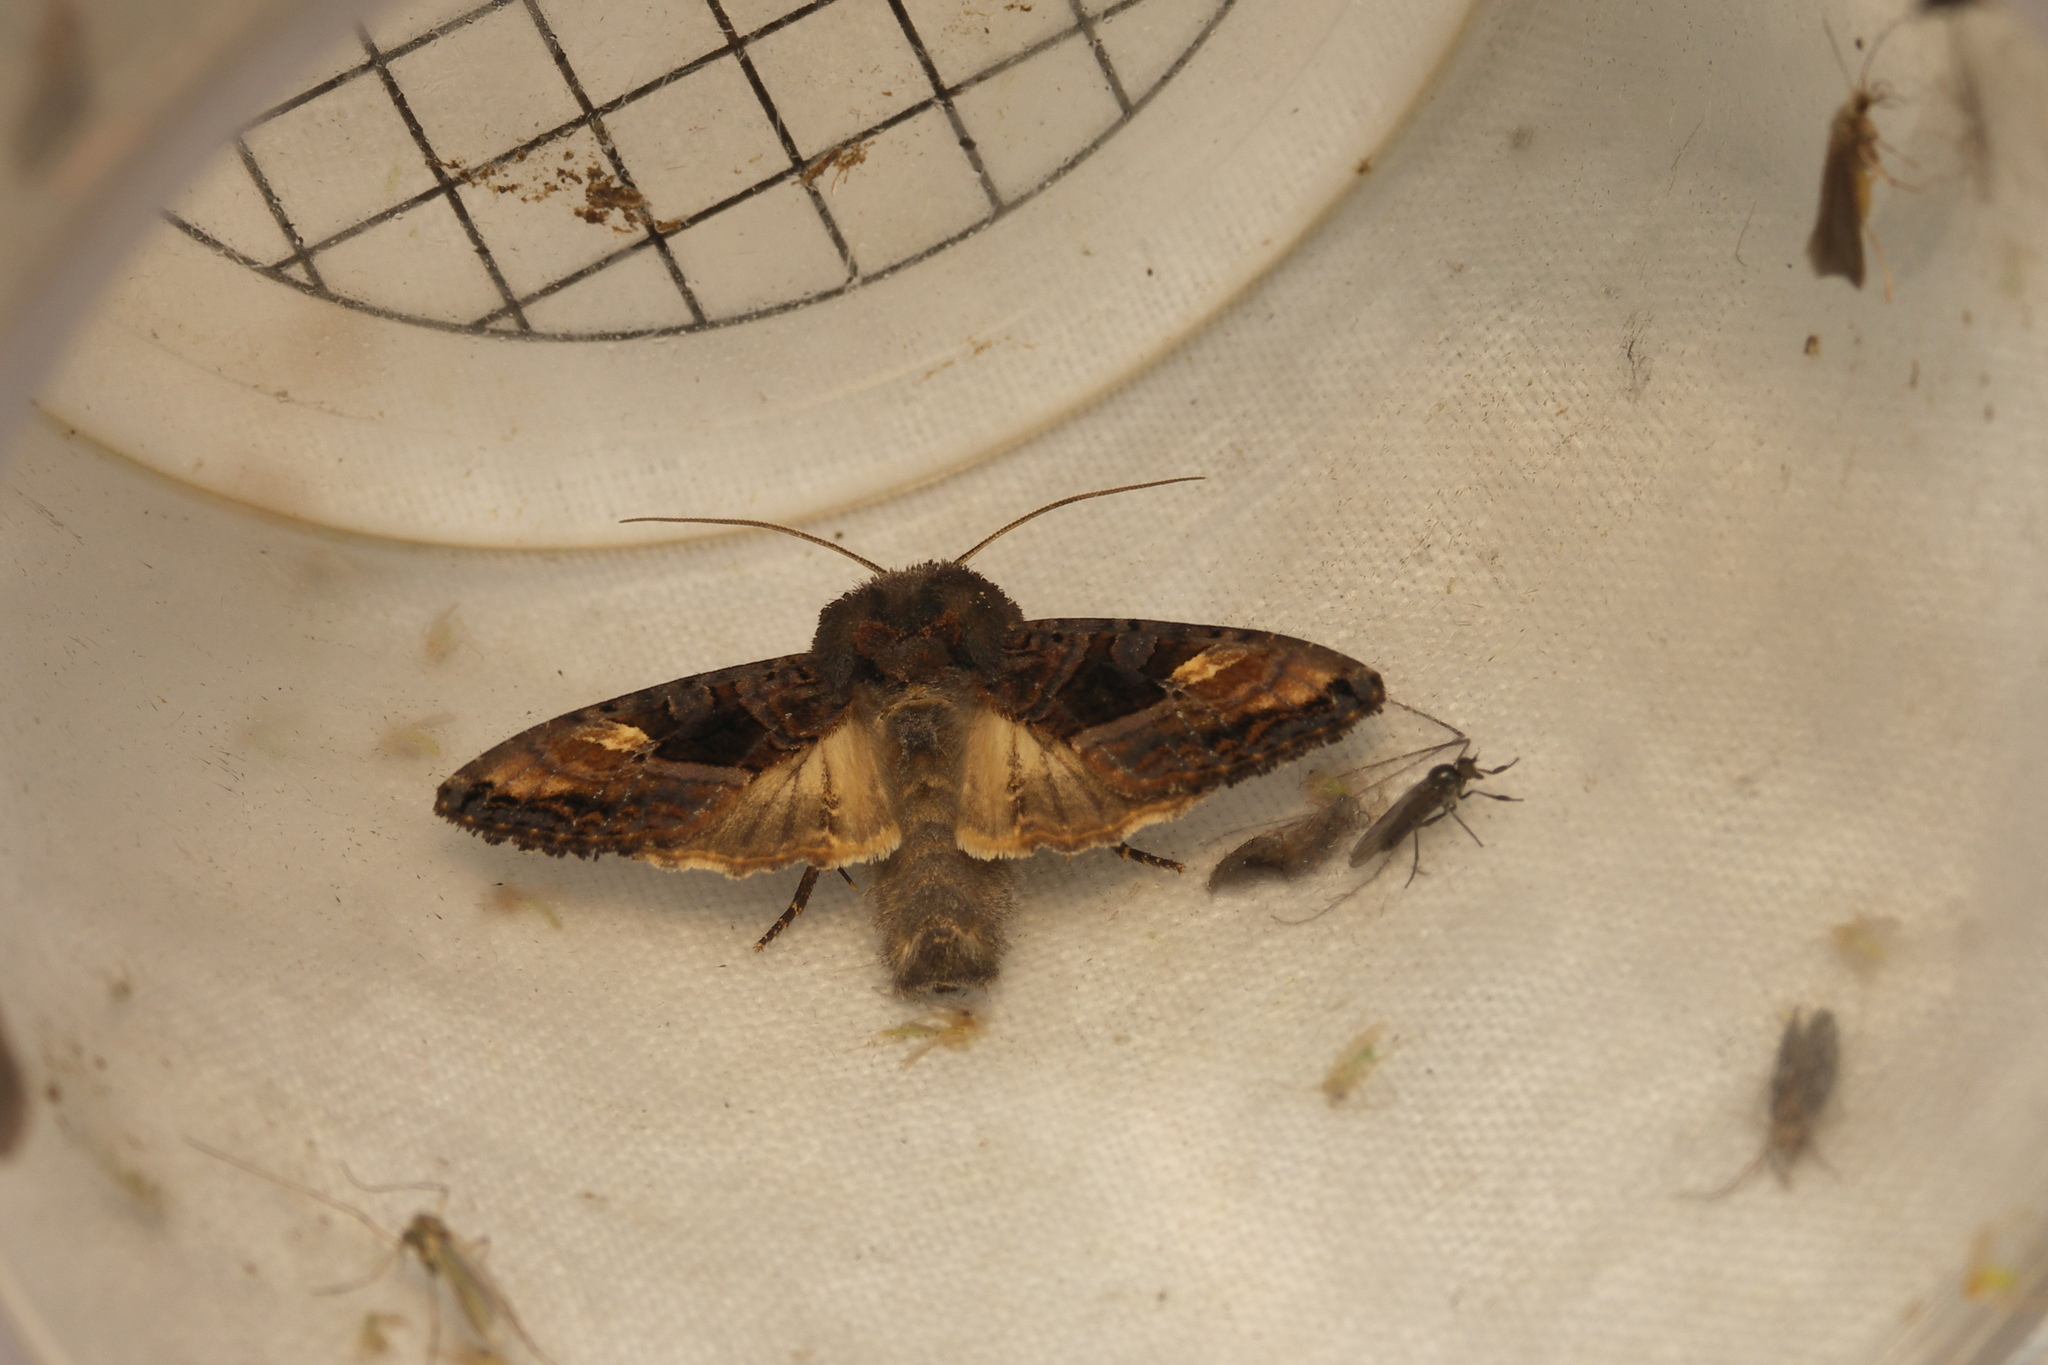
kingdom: Animalia
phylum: Arthropoda
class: Insecta
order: Lepidoptera
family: Noctuidae
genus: Euplexia
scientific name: Euplexia lucipara
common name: Small angle shades
